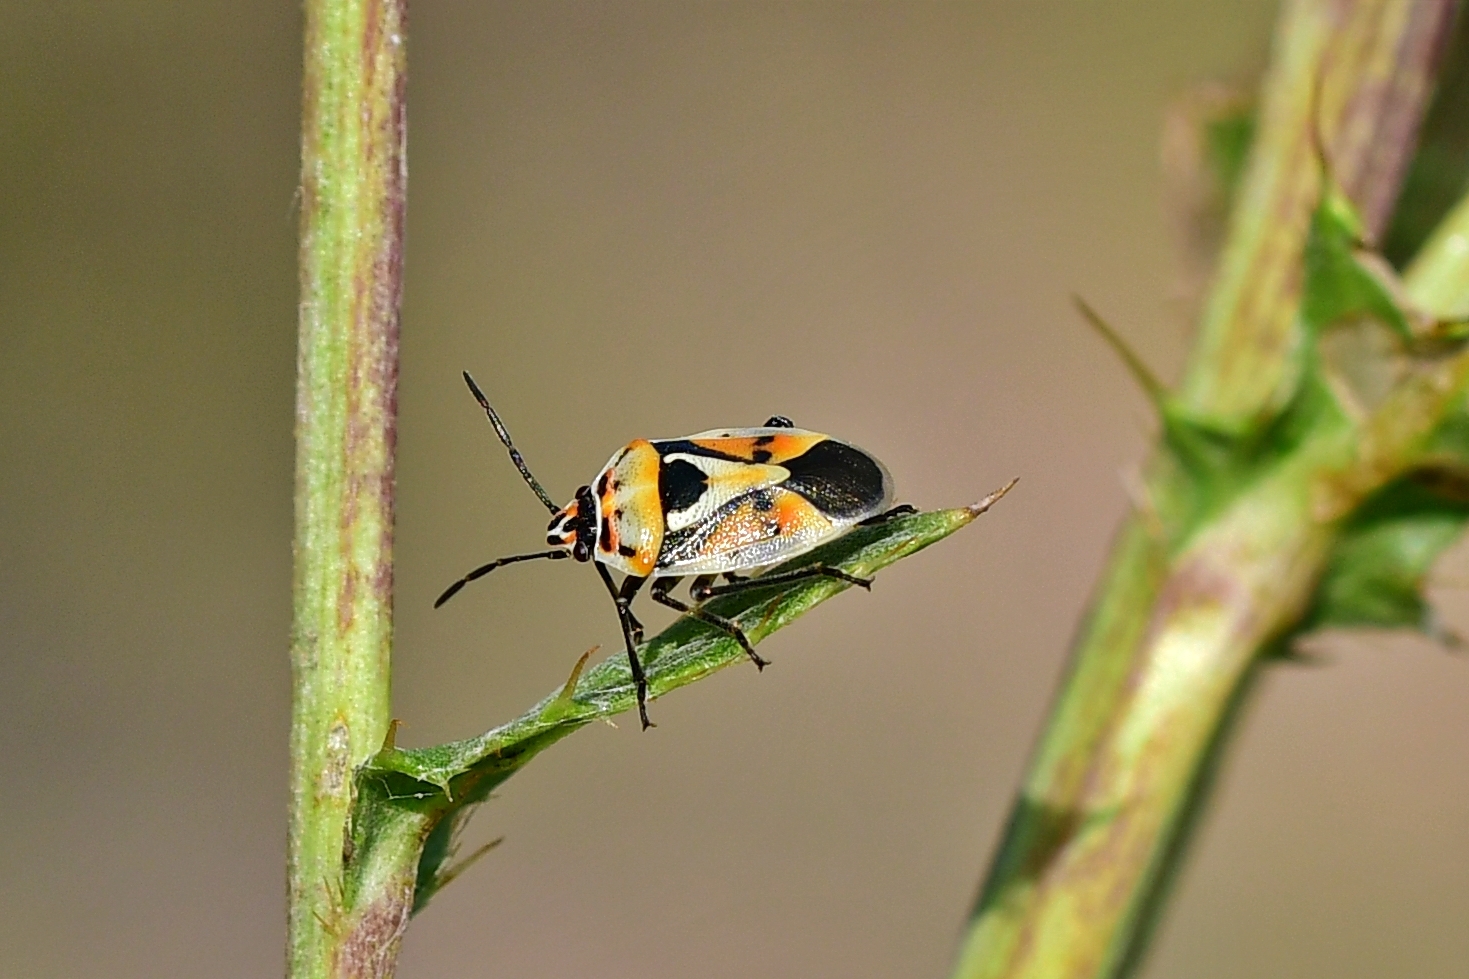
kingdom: Animalia
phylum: Arthropoda
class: Insecta
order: Hemiptera
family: Pentatomidae
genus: Eurydema
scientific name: Eurydema ornata
